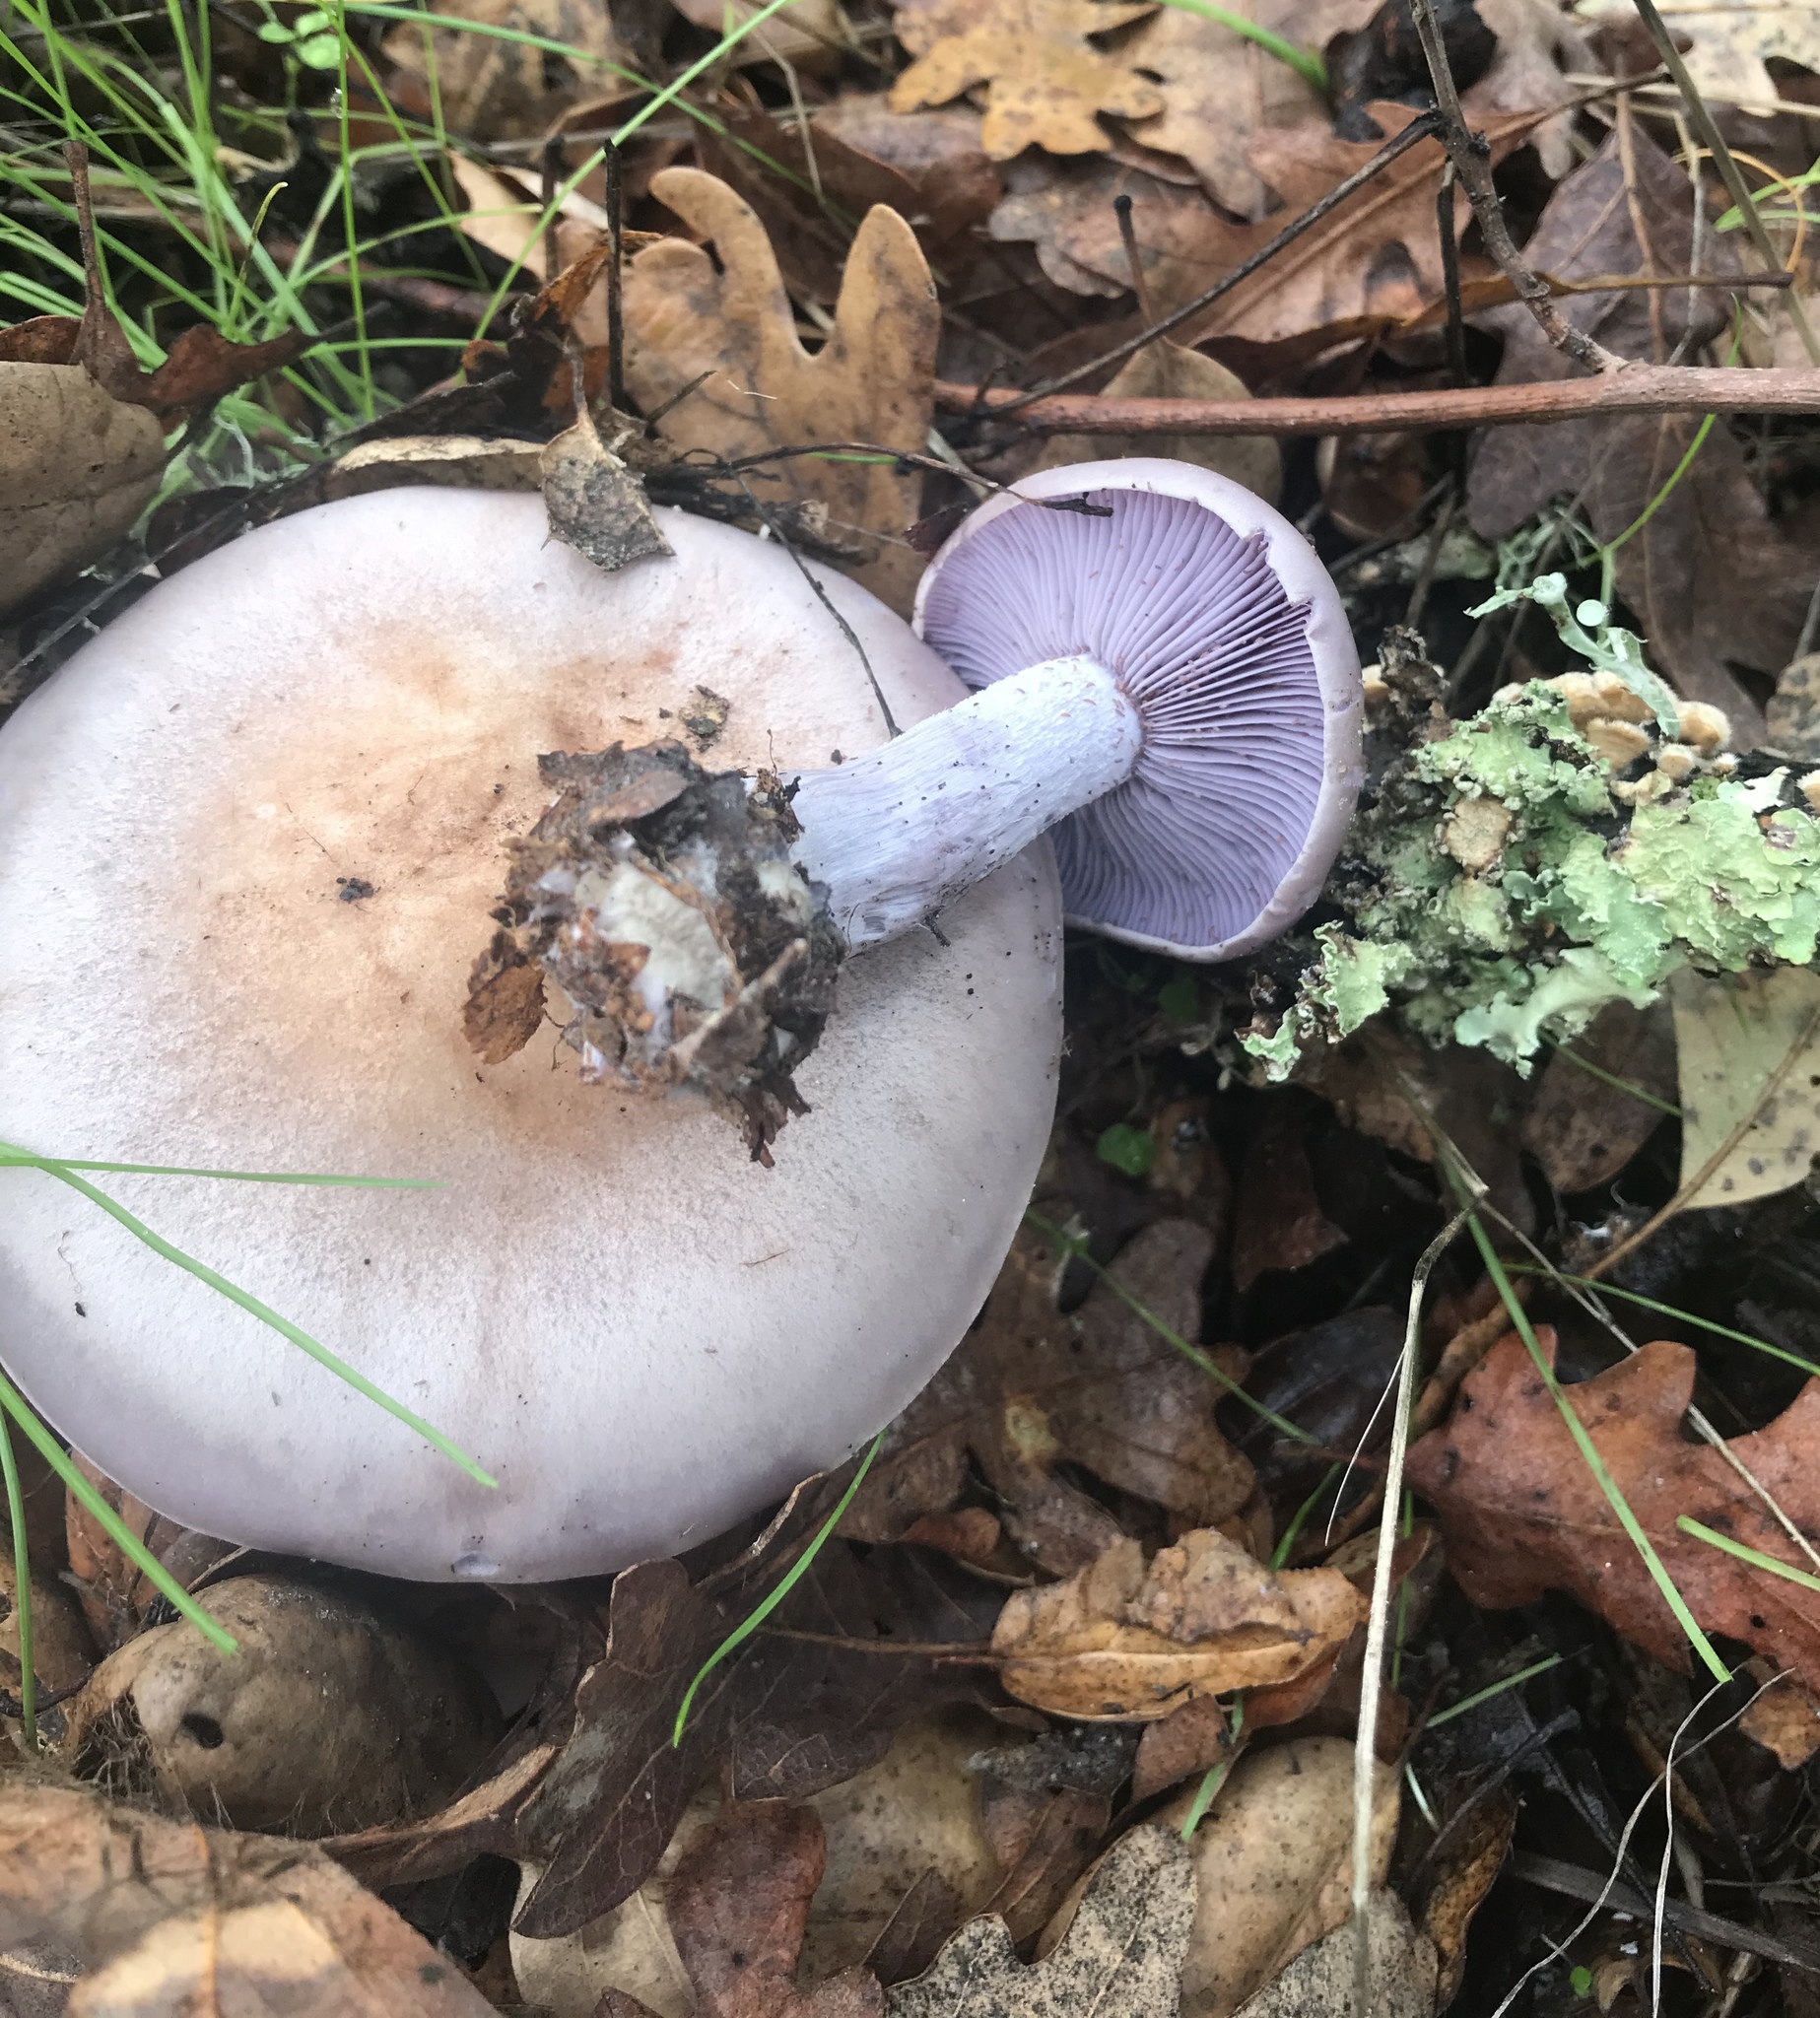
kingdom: Fungi
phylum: Basidiomycota
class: Agaricomycetes
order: Agaricales
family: Tricholomataceae
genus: Collybia
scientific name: Collybia
